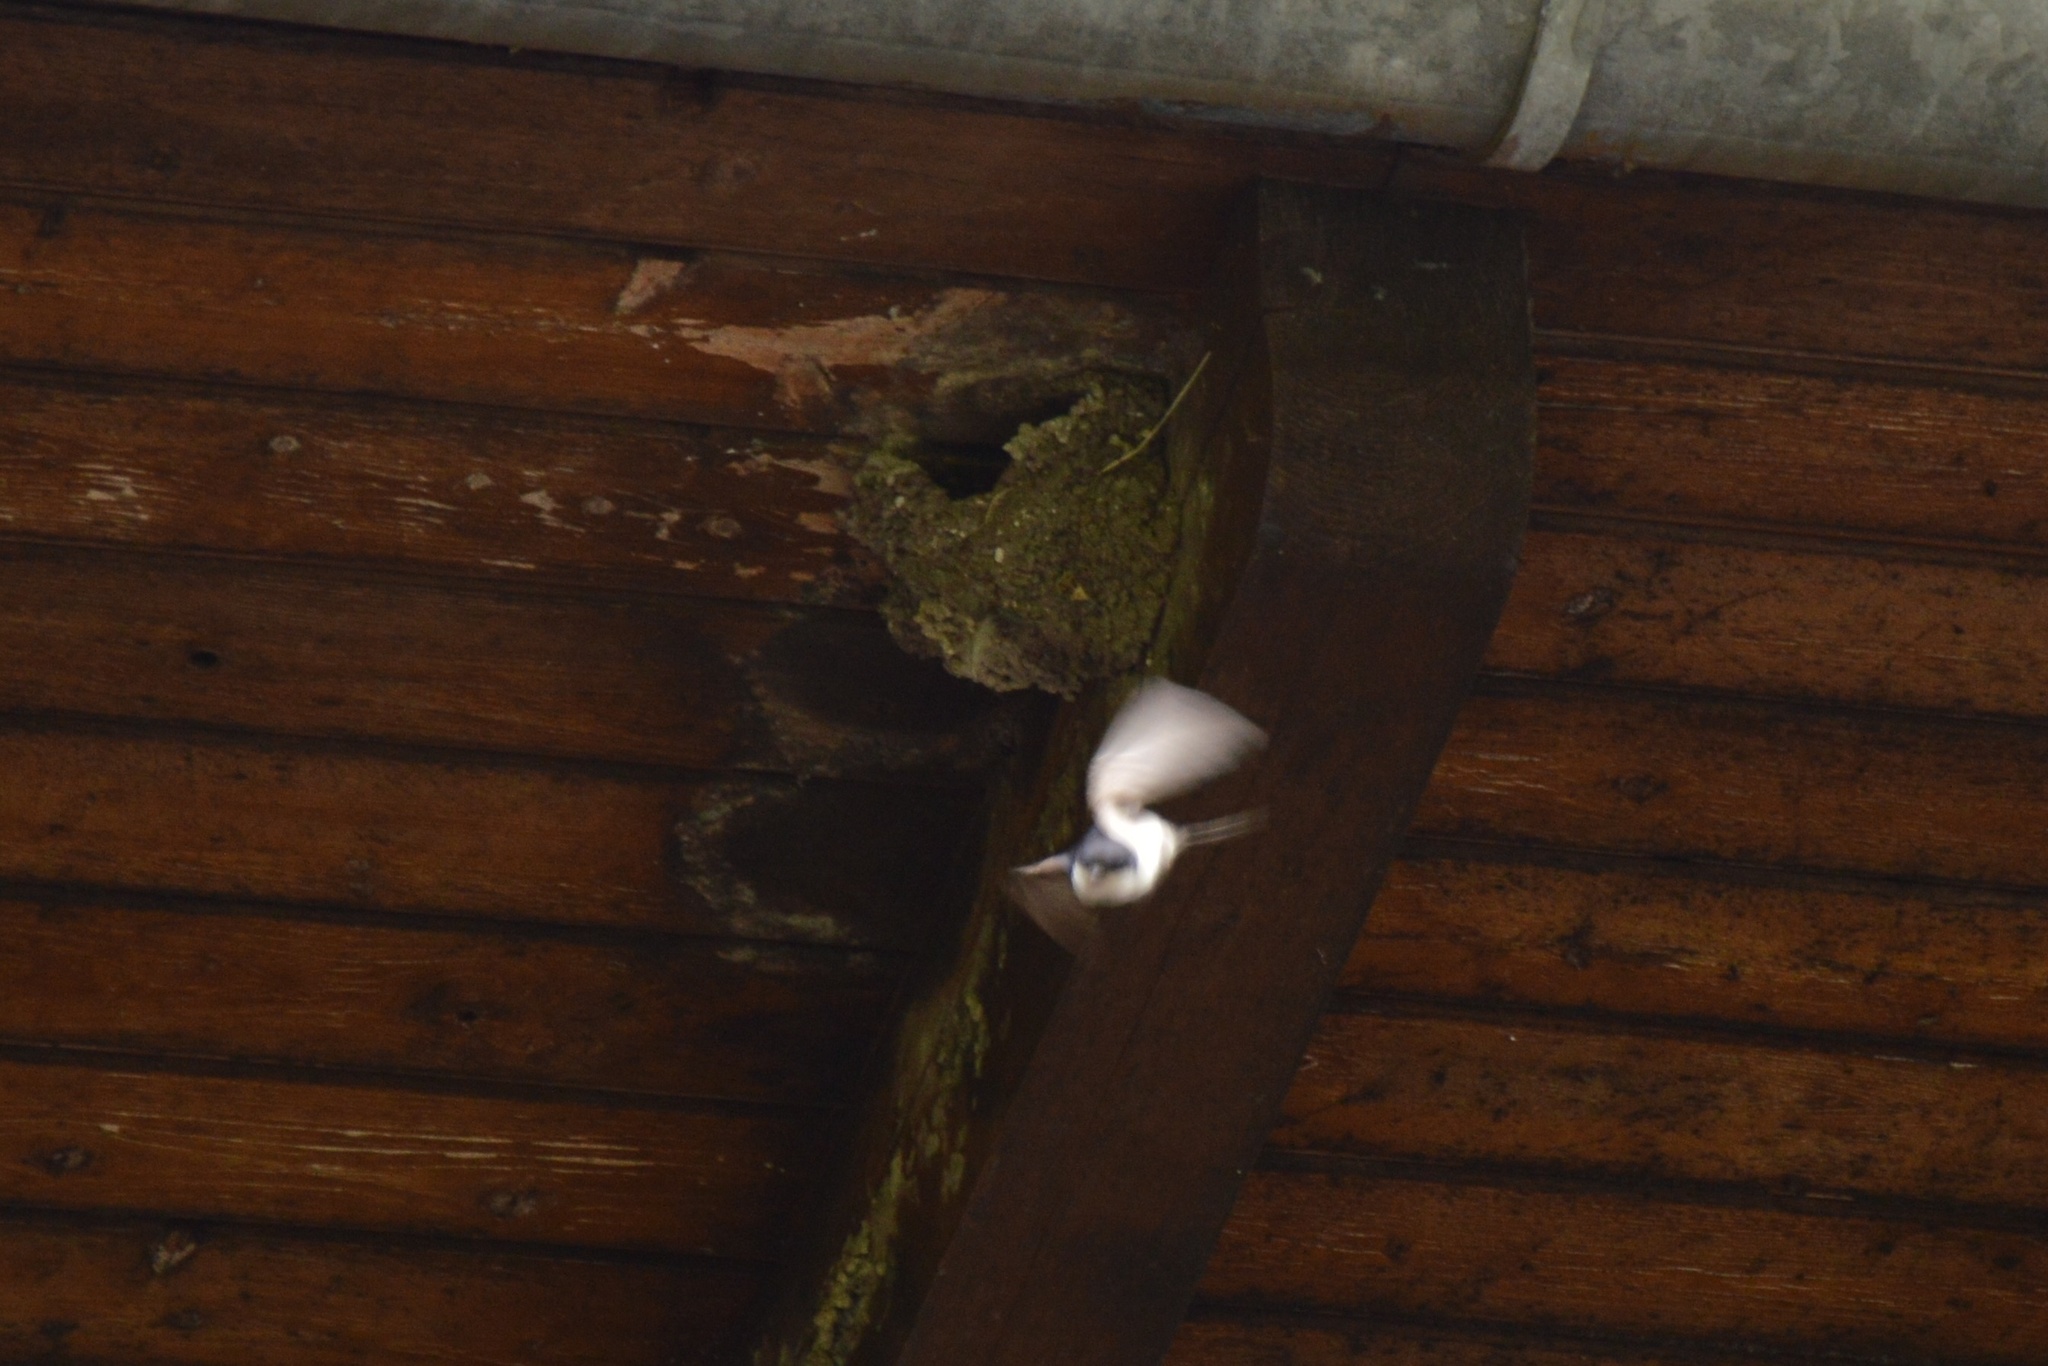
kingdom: Animalia
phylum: Chordata
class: Aves
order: Passeriformes
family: Hirundinidae
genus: Delichon
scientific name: Delichon urbicum
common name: Common house martin
